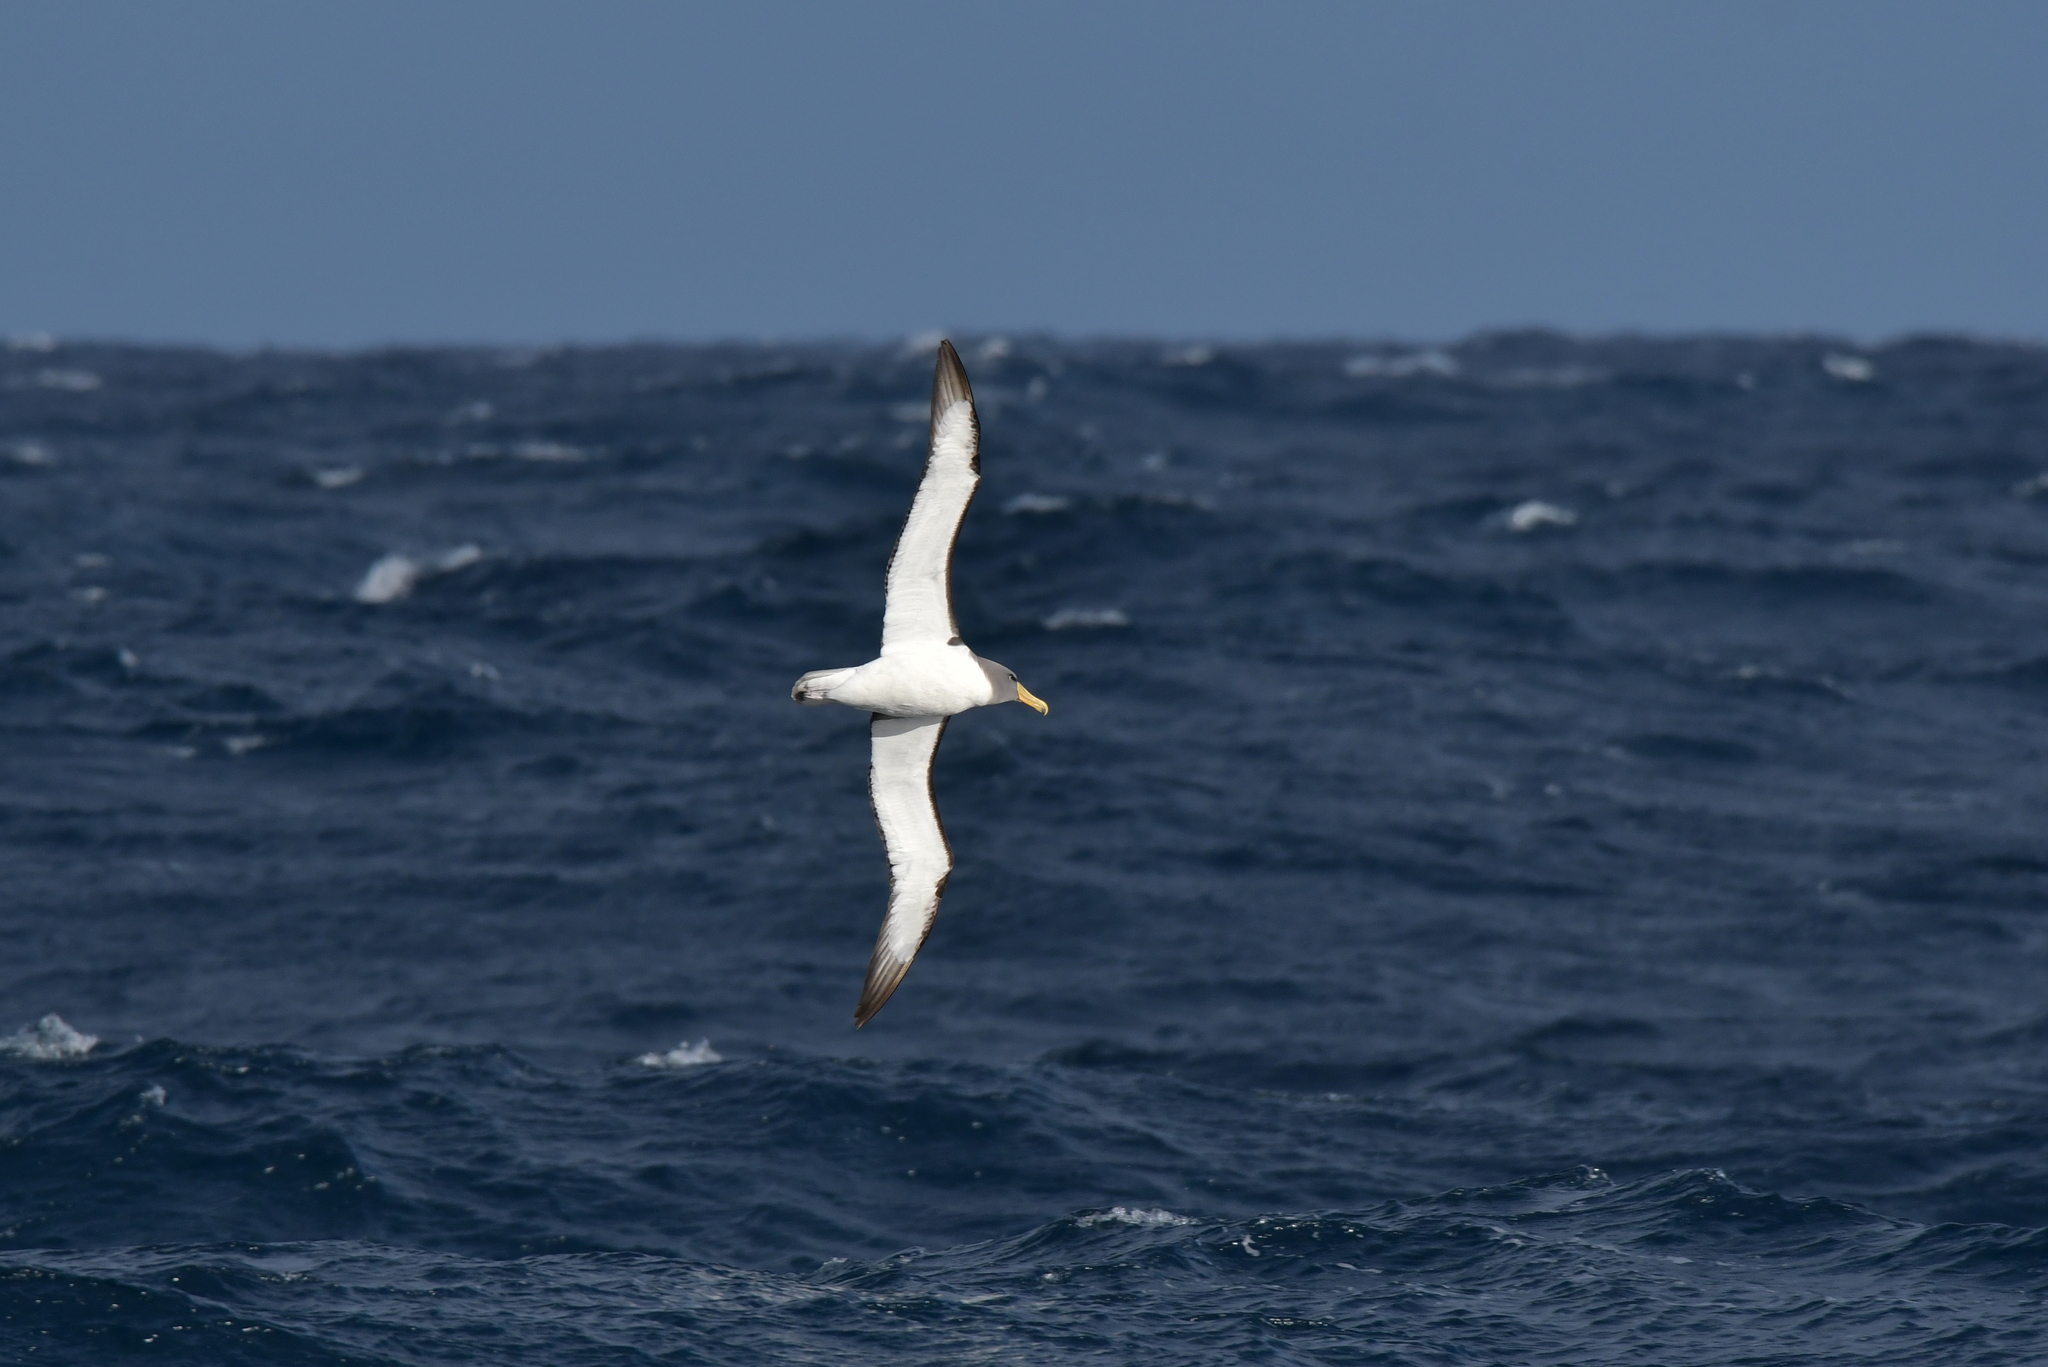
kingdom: Animalia
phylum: Chordata
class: Aves
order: Procellariiformes
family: Diomedeidae
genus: Thalassarche
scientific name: Thalassarche eremita
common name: Chatham albatross
